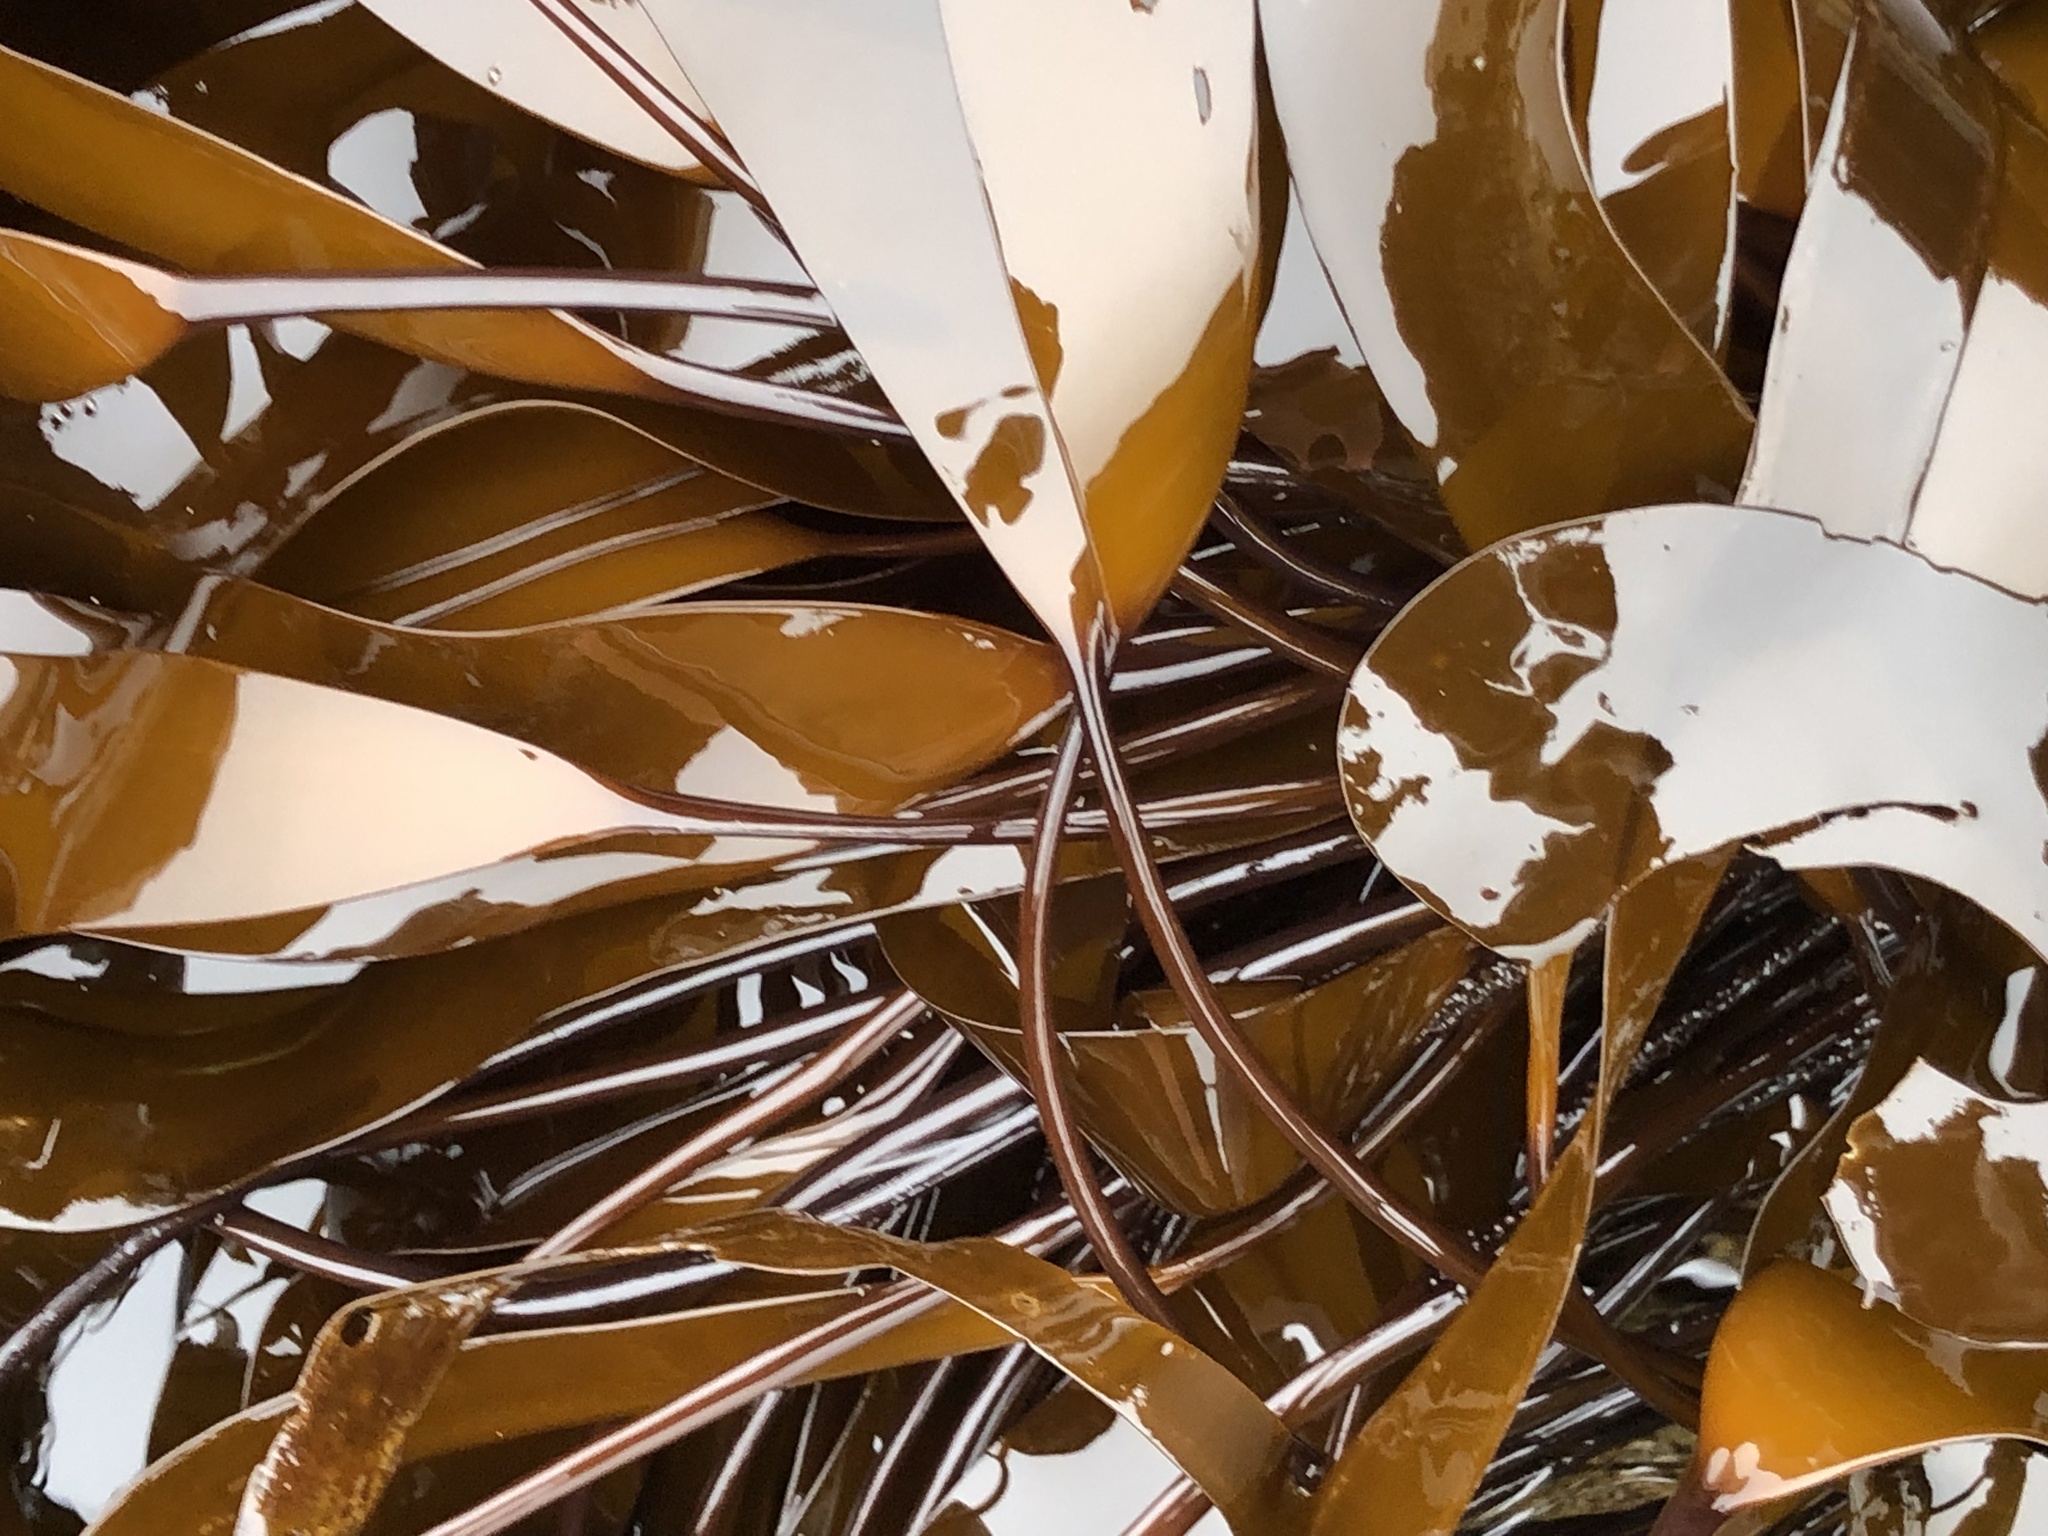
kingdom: Chromista
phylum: Ochrophyta
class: Phaeophyceae
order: Laminariales
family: Laminariaceae
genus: Laminaria
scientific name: Laminaria sinclairii
